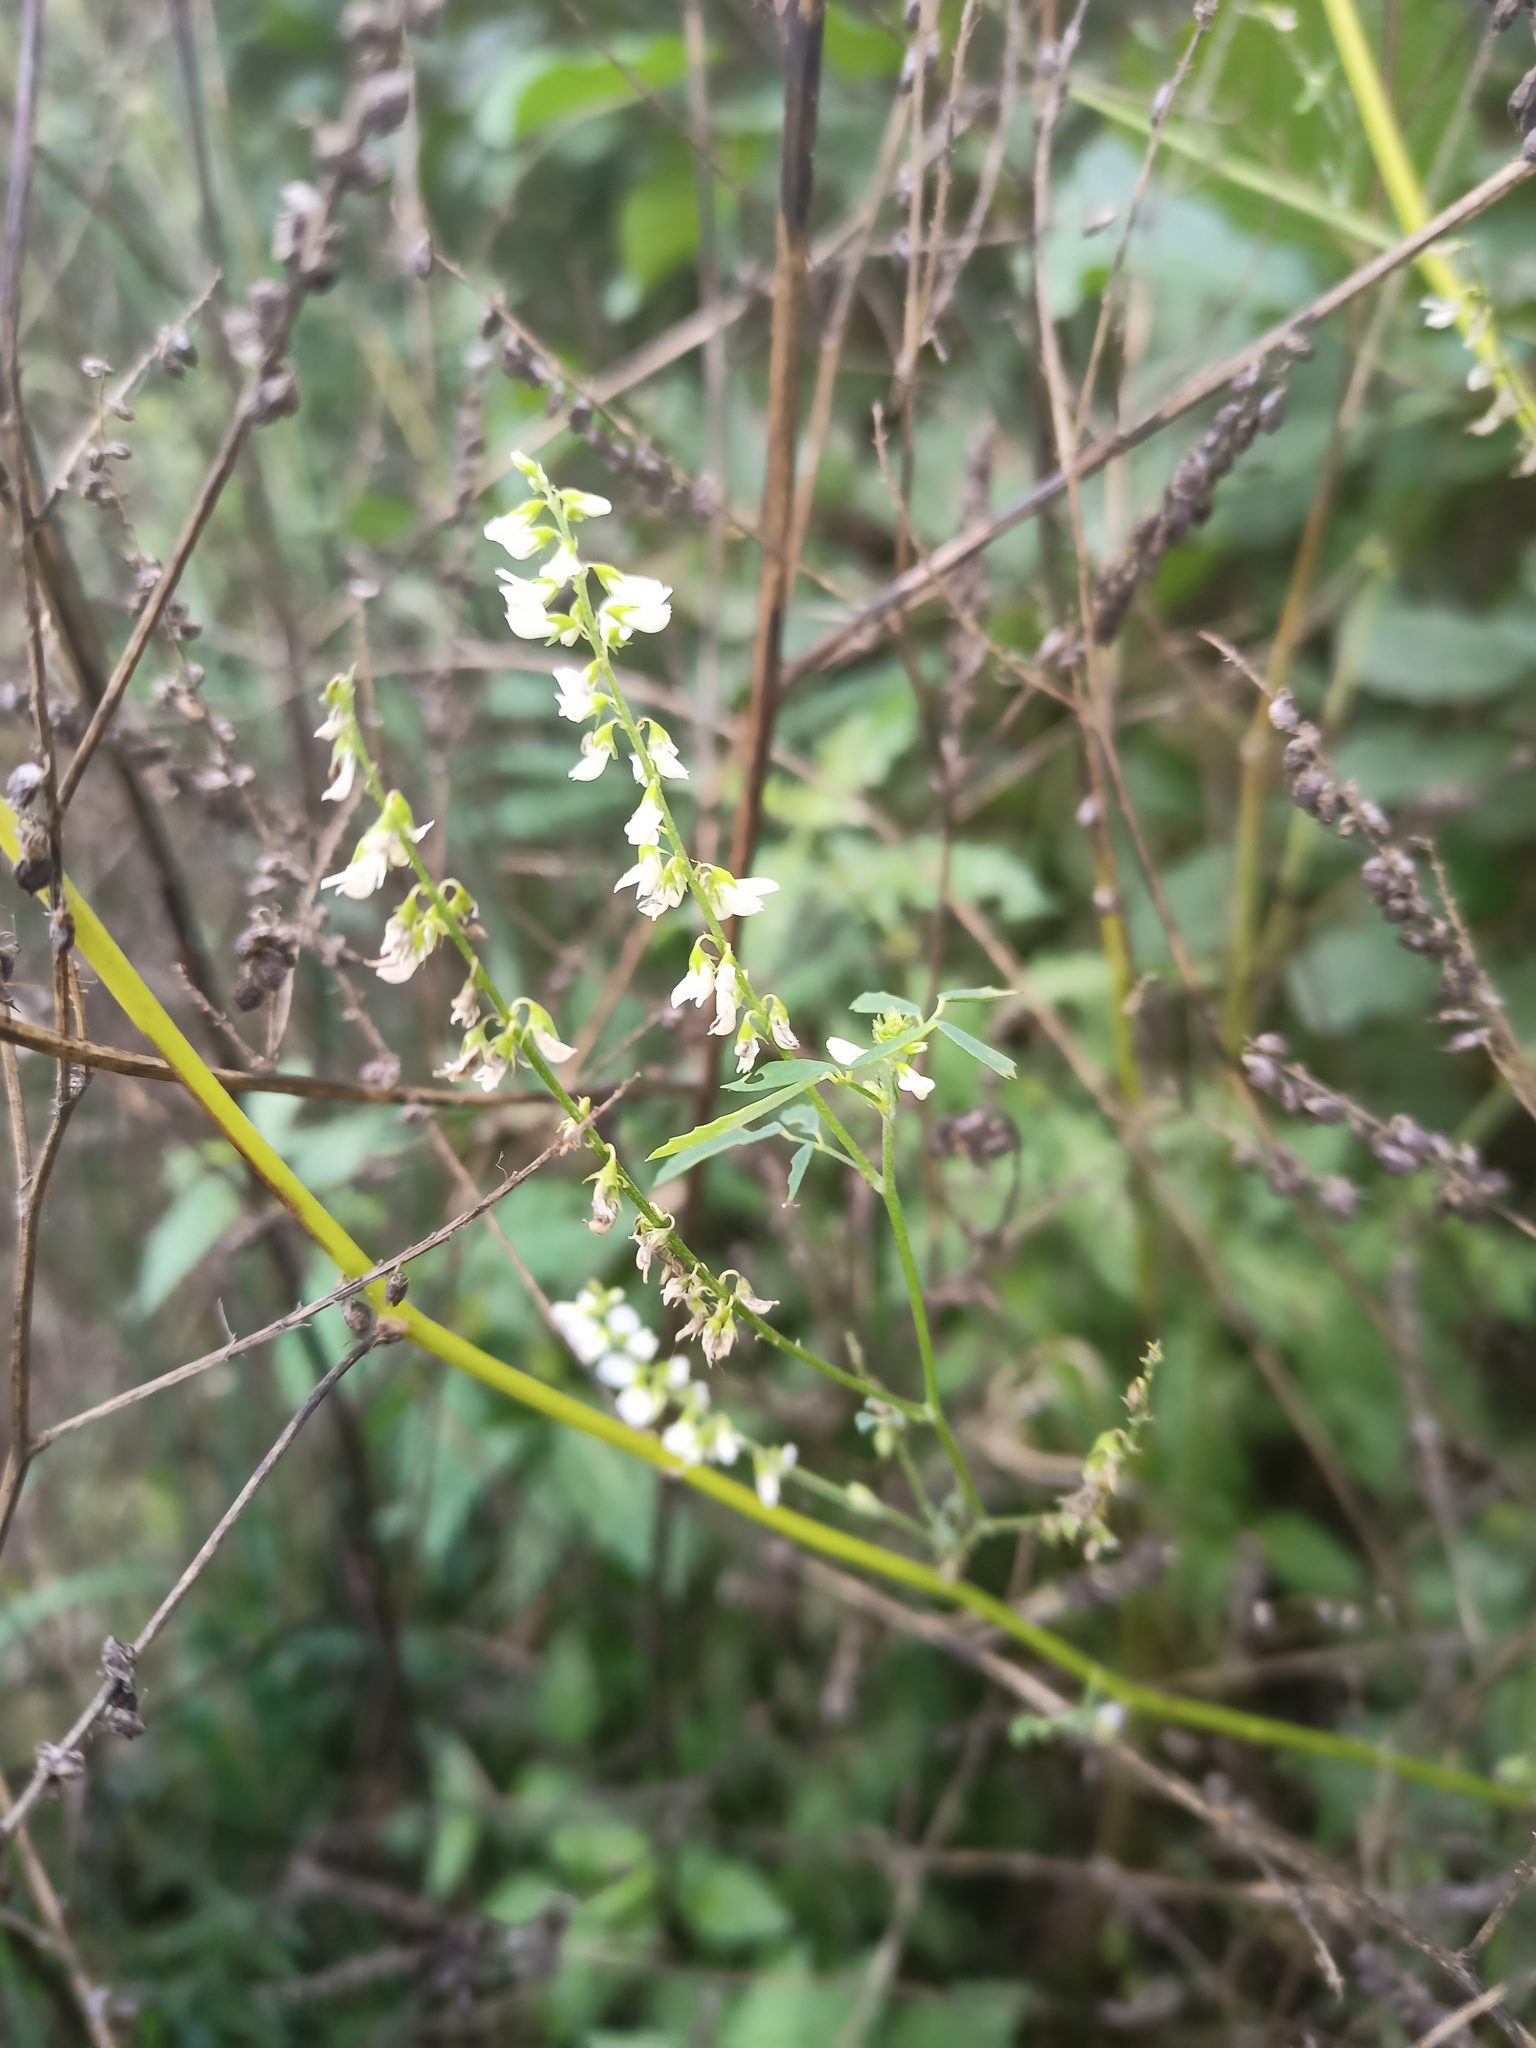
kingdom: Plantae
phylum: Tracheophyta
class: Magnoliopsida
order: Fabales
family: Fabaceae
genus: Melilotus
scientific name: Melilotus albus
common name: White melilot
